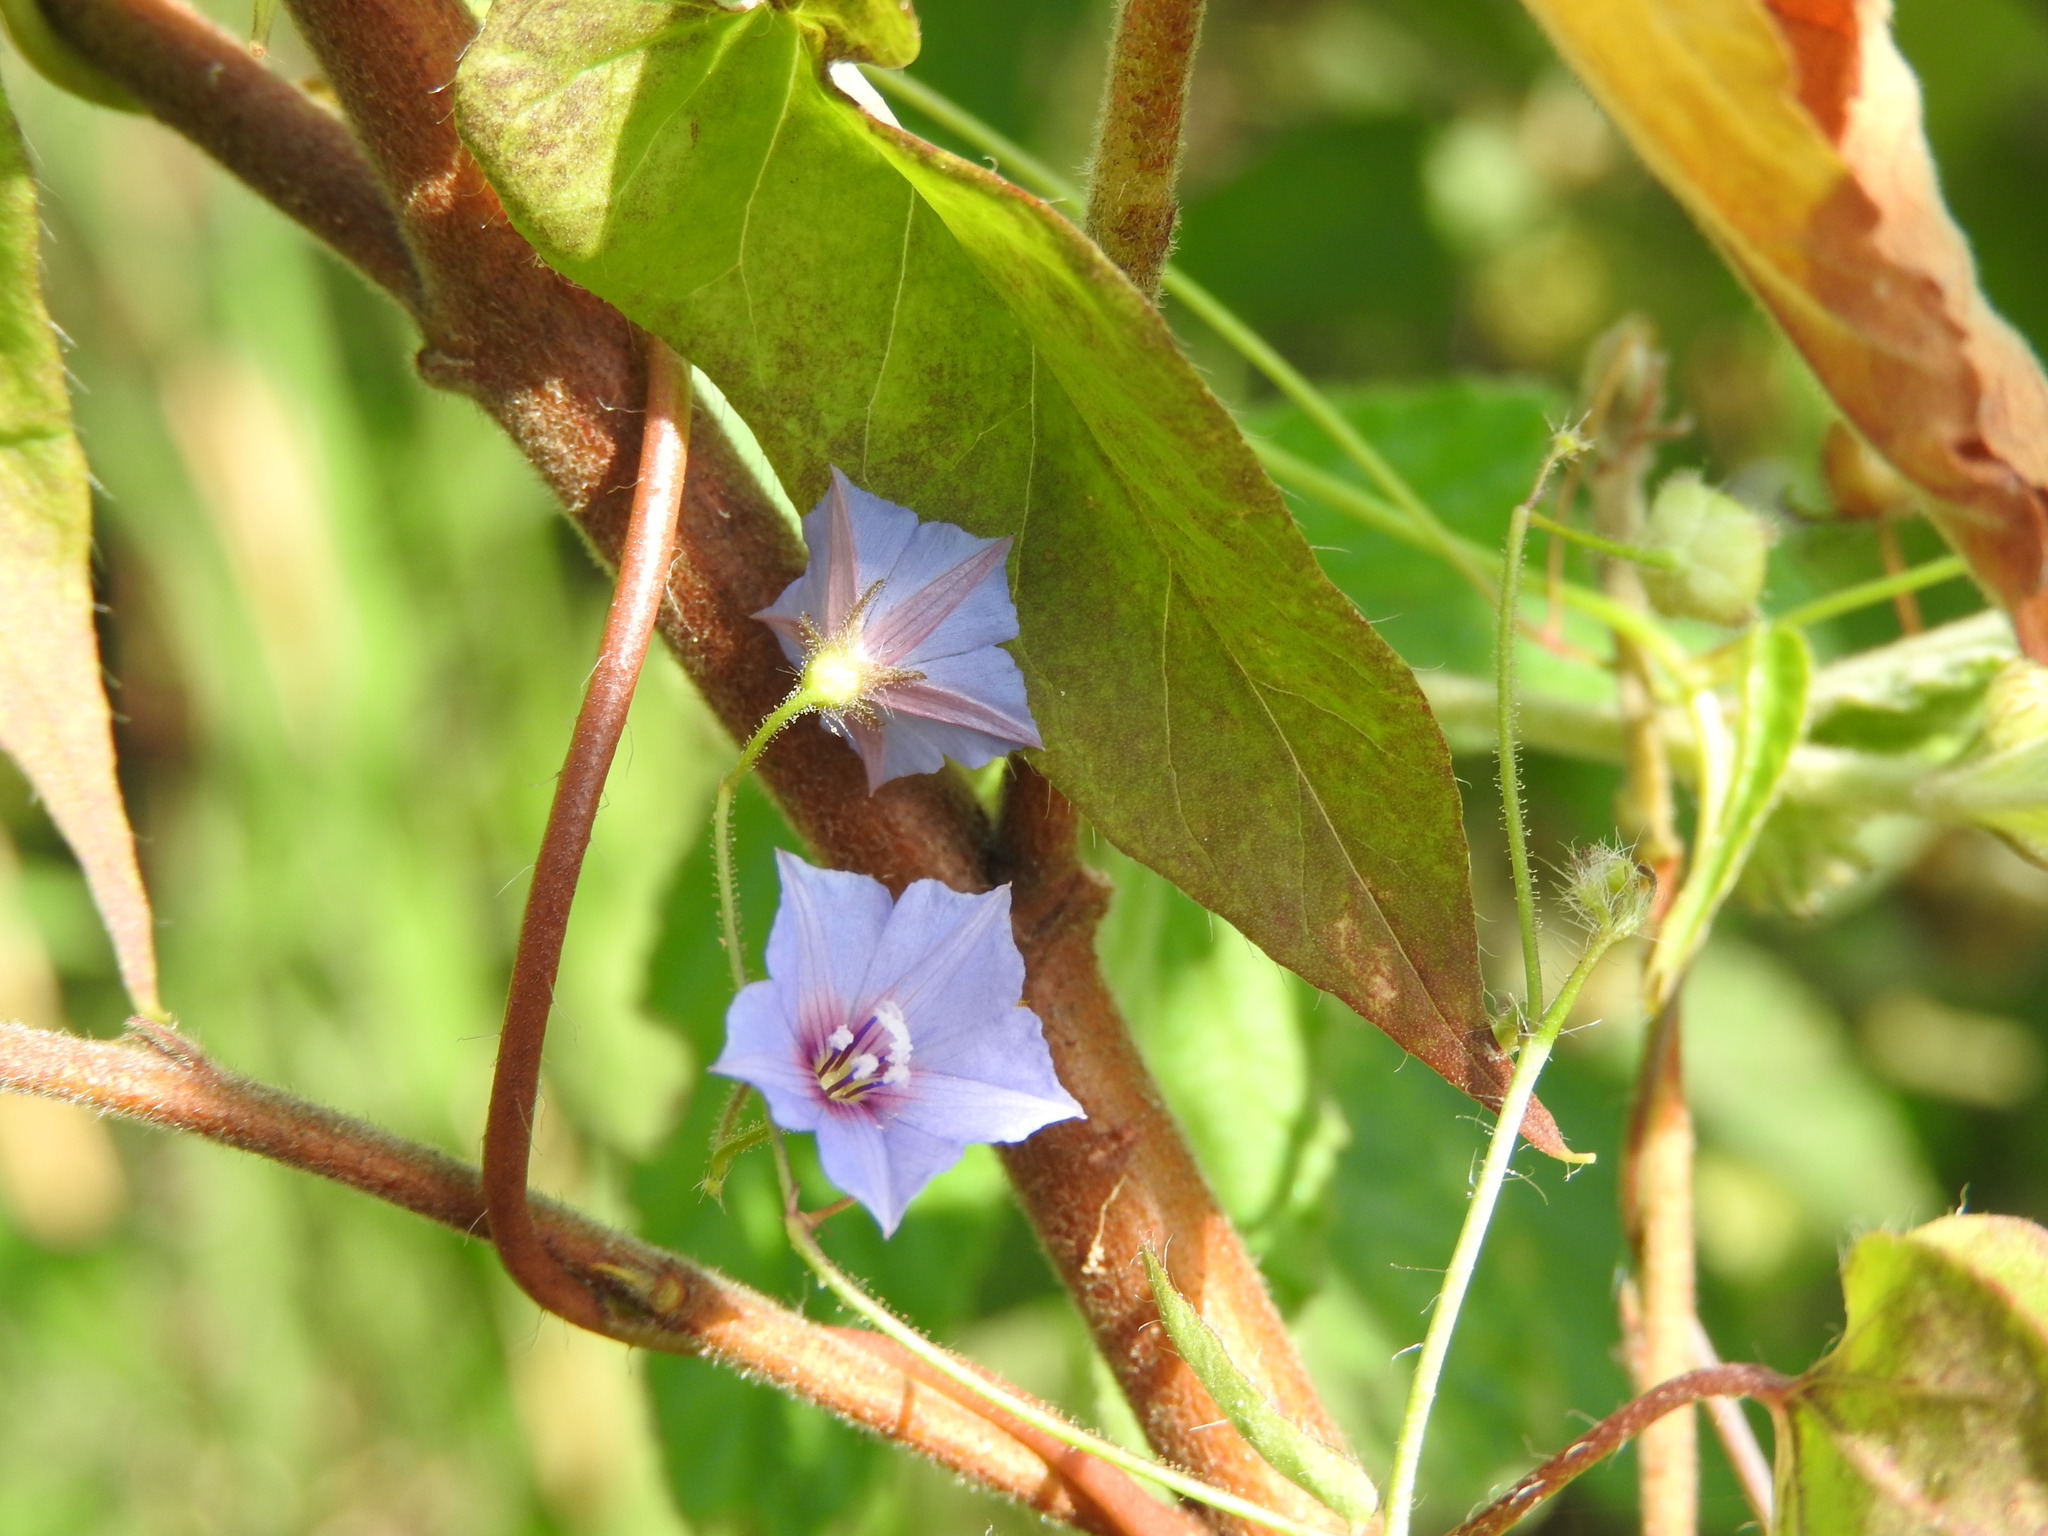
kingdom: Plantae
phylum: Tracheophyta
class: Magnoliopsida
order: Solanales
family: Convolvulaceae
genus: Jacquemontia
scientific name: Jacquemontia evolvuloides
